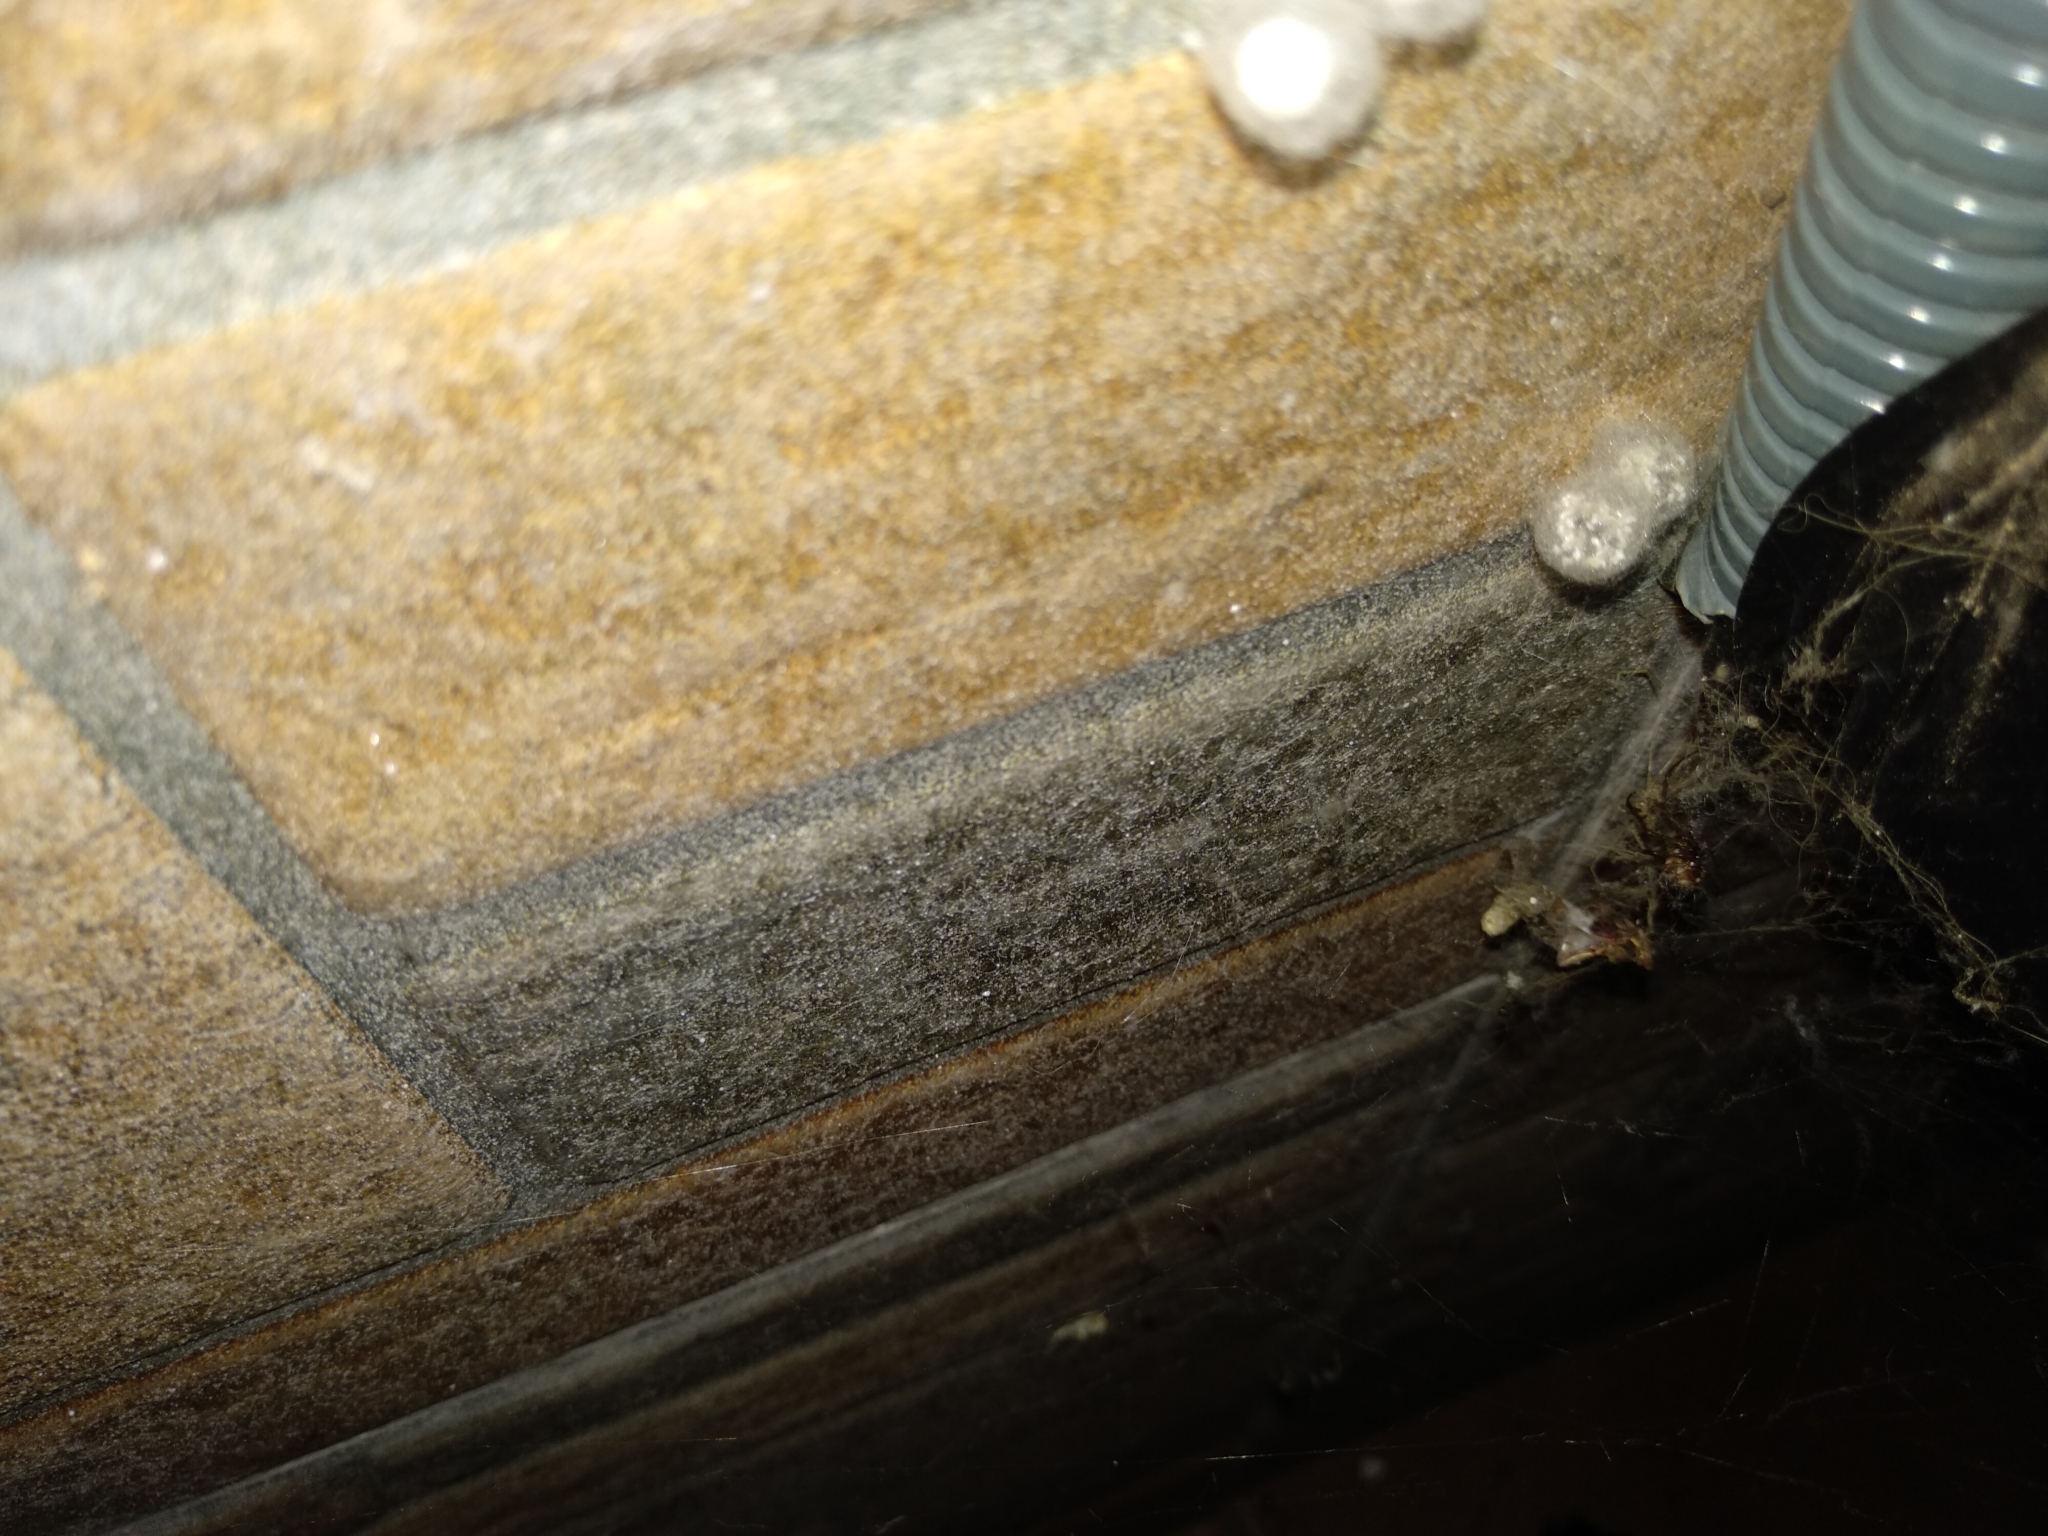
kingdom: Animalia
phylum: Arthropoda
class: Arachnida
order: Araneae
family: Theridiidae
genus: Steatoda
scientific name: Steatoda grossa
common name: False black widow
